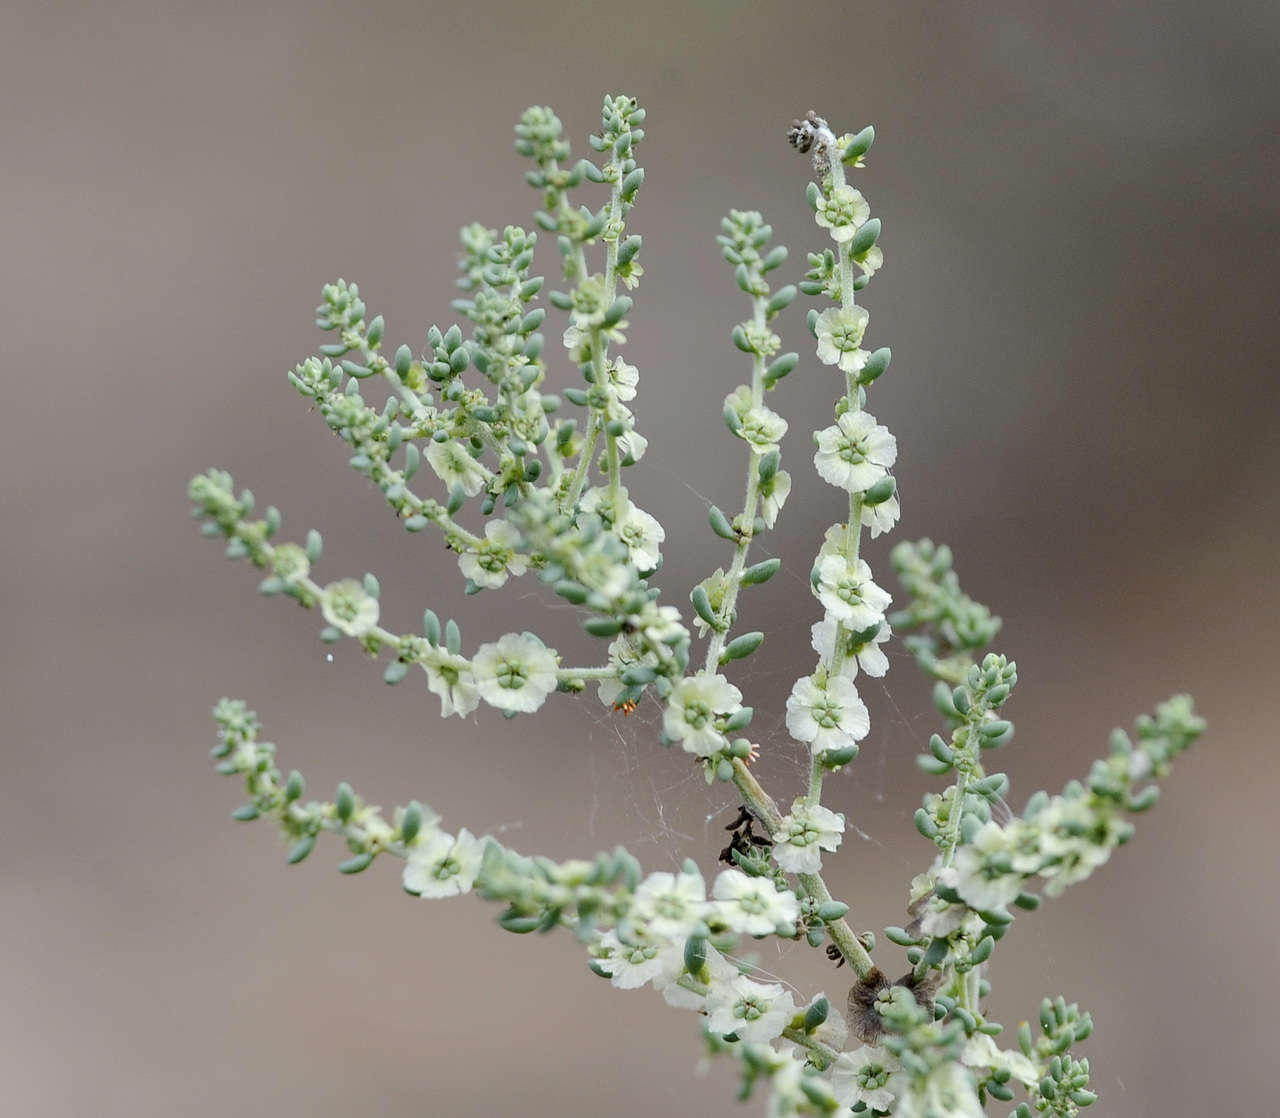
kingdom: Plantae
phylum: Tracheophyta
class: Magnoliopsida
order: Caryophyllales
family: Amaranthaceae
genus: Maireana
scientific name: Maireana brevifolia
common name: Eastern cottonbush
